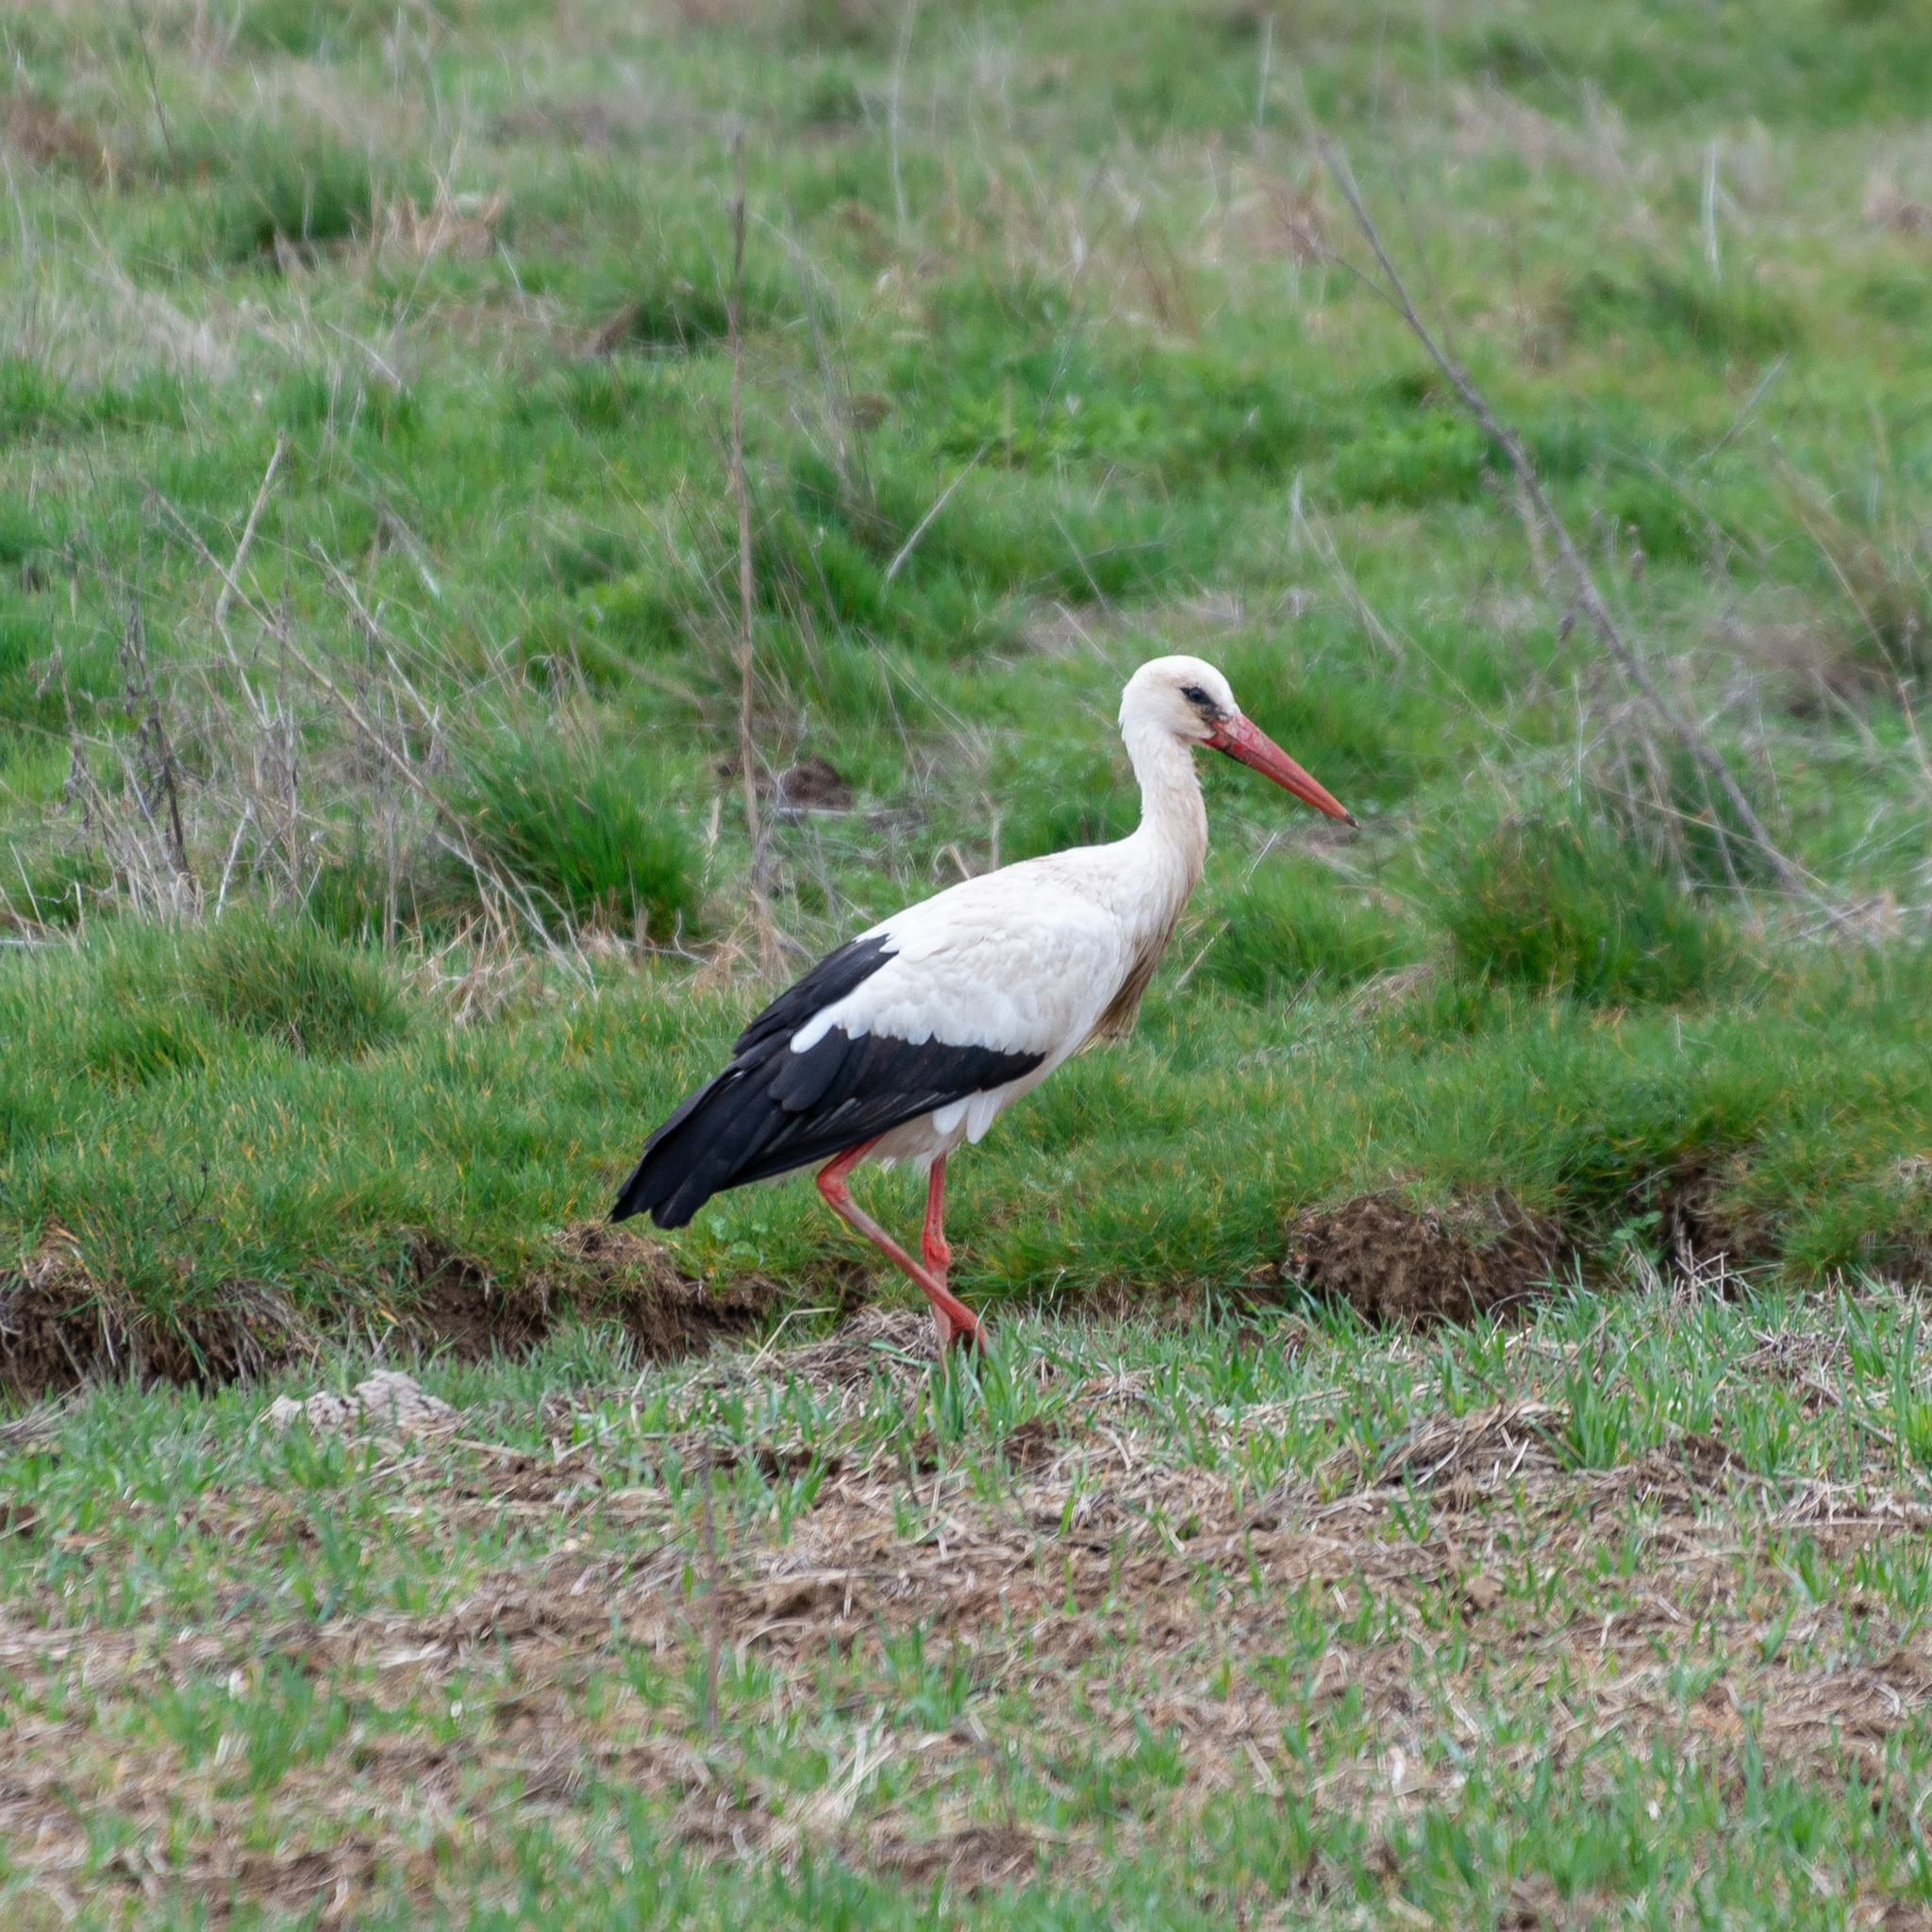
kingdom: Animalia
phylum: Chordata
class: Aves
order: Ciconiiformes
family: Ciconiidae
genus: Ciconia
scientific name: Ciconia ciconia
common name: White stork
